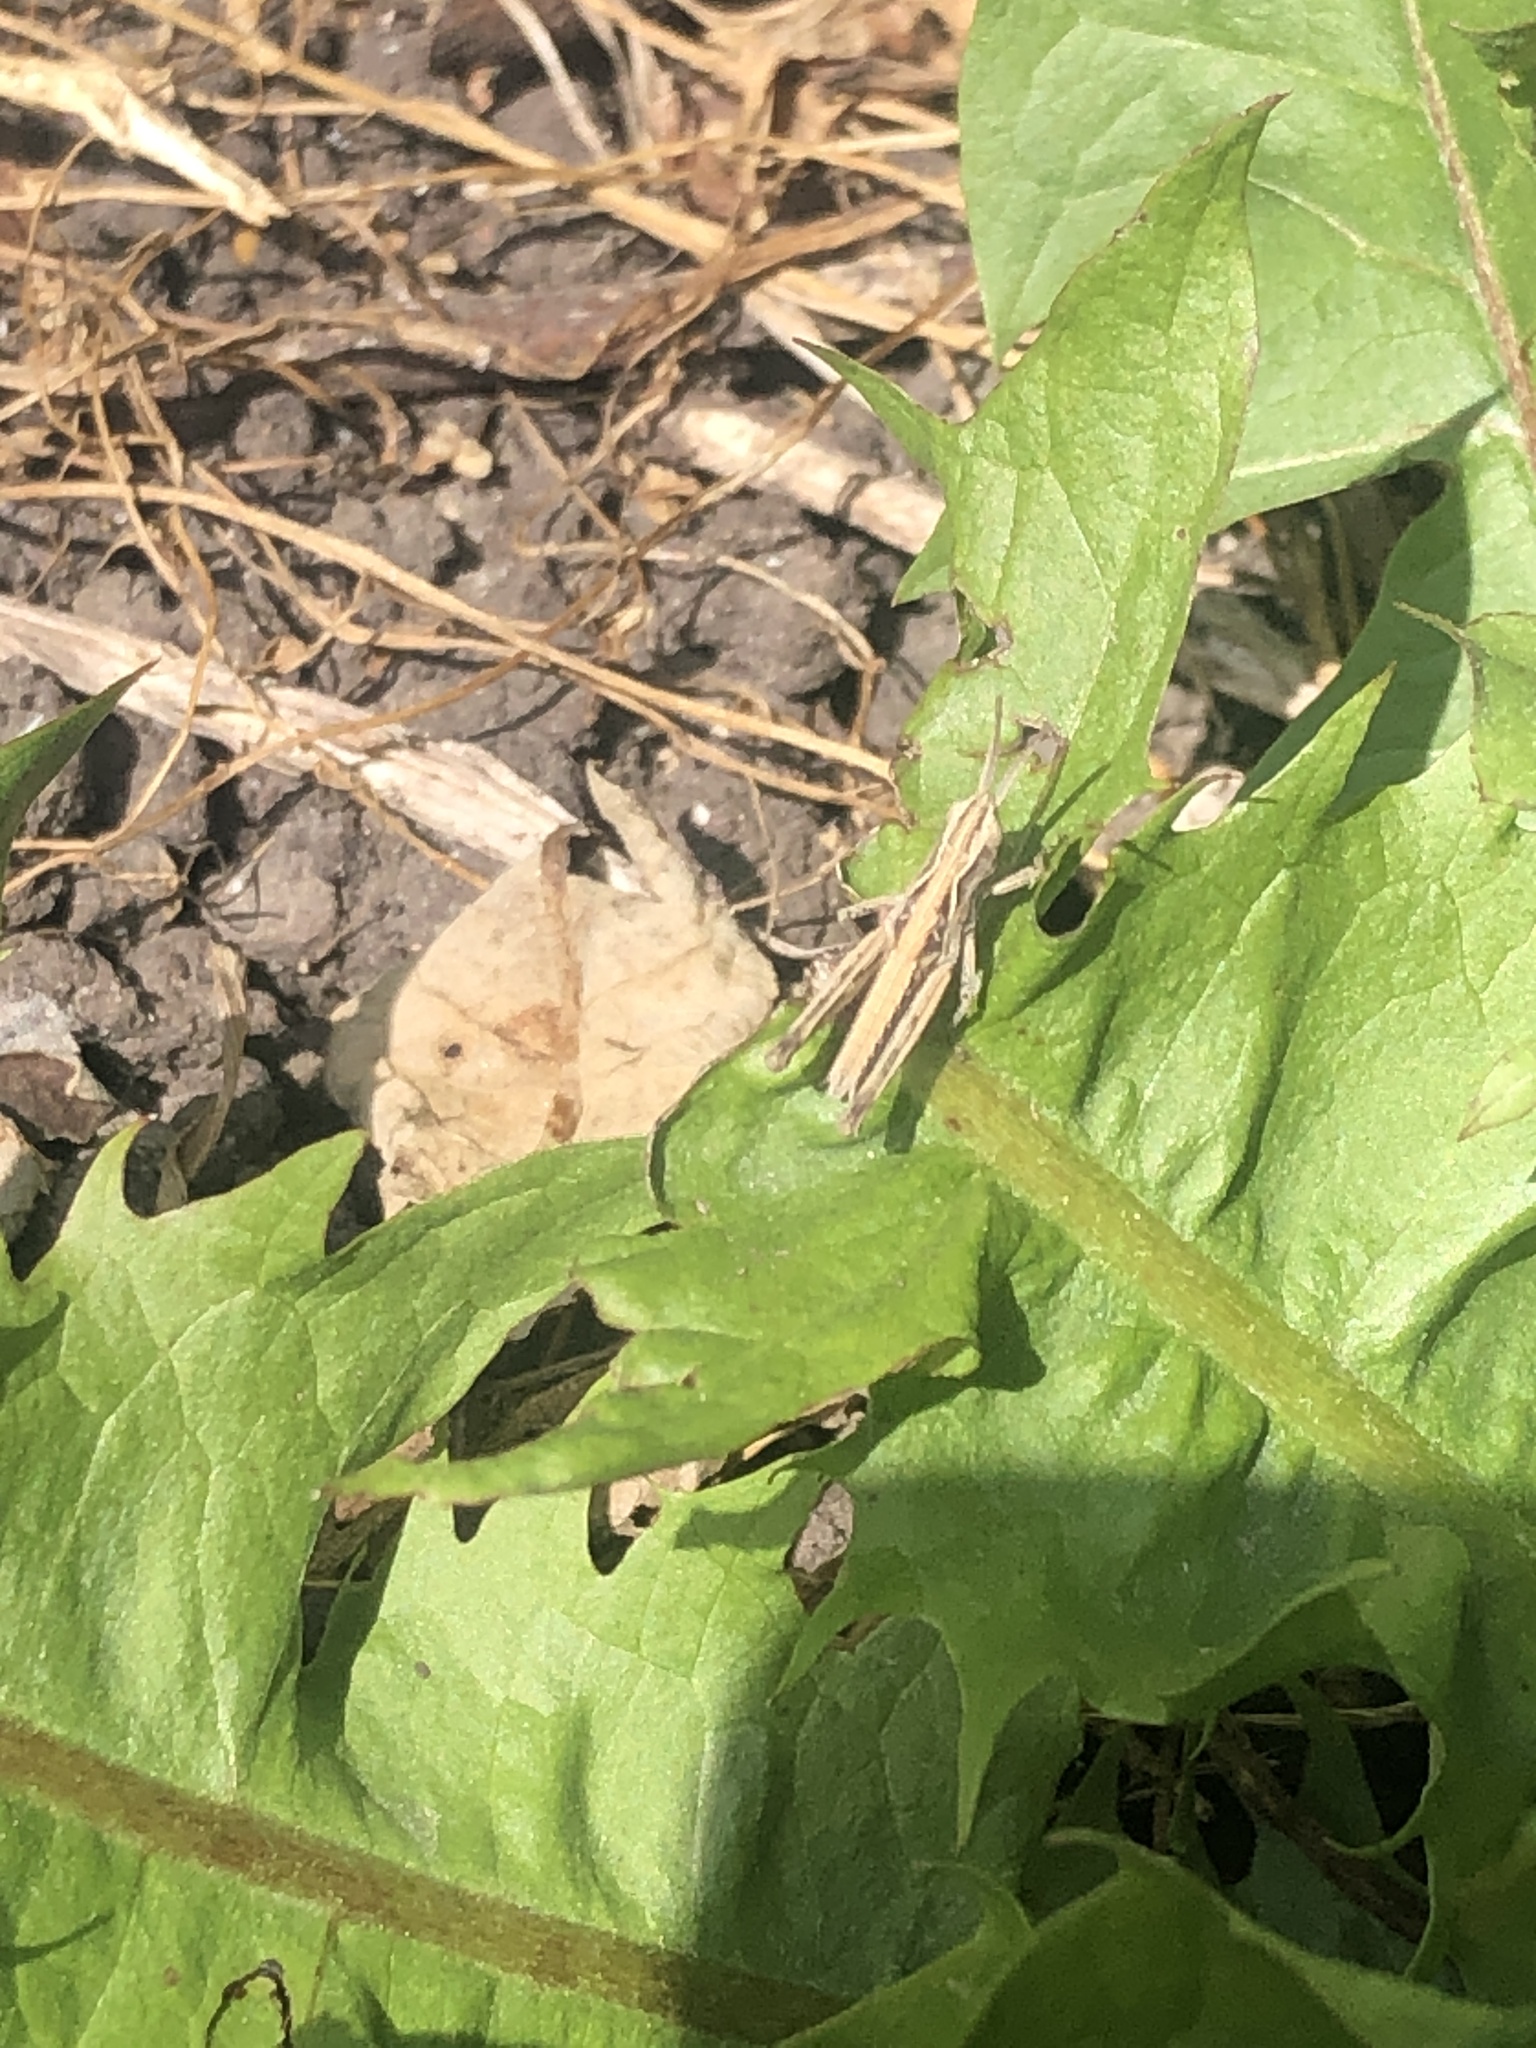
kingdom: Animalia
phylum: Arthropoda
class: Insecta
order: Orthoptera
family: Acrididae
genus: Chorthippus
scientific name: Chorthippus brunneus
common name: Field grasshopper
